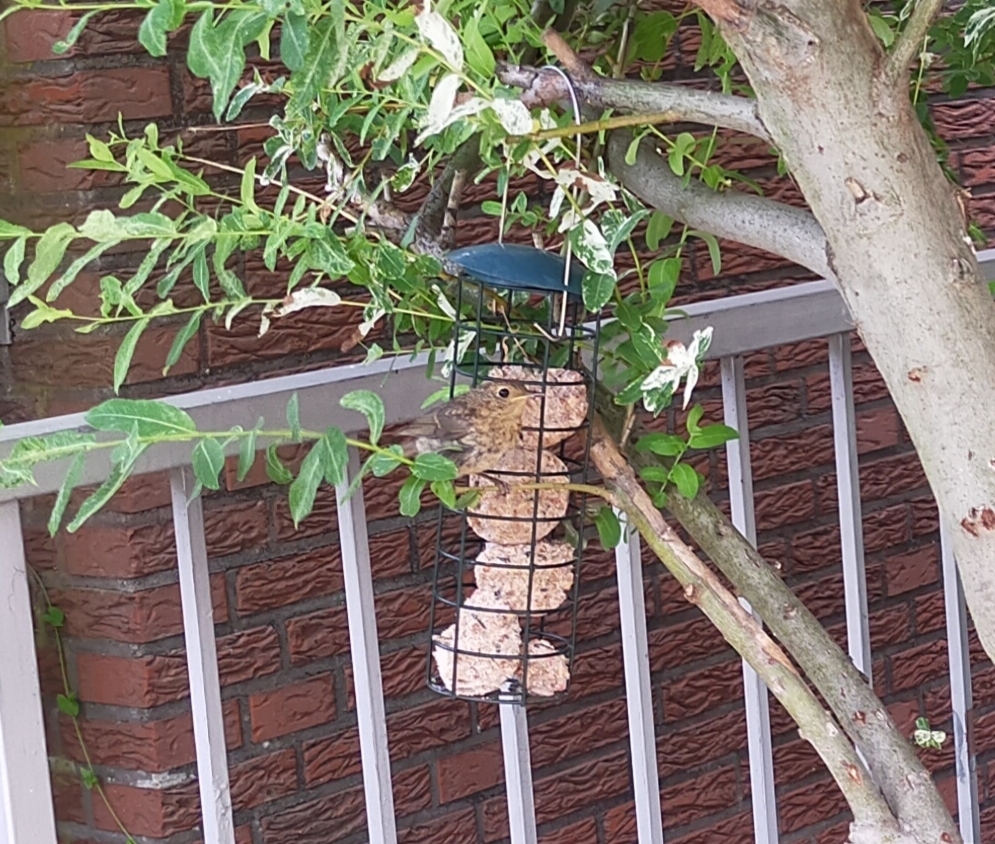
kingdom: Animalia
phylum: Chordata
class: Aves
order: Passeriformes
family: Muscicapidae
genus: Erithacus
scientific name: Erithacus rubecula
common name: European robin
